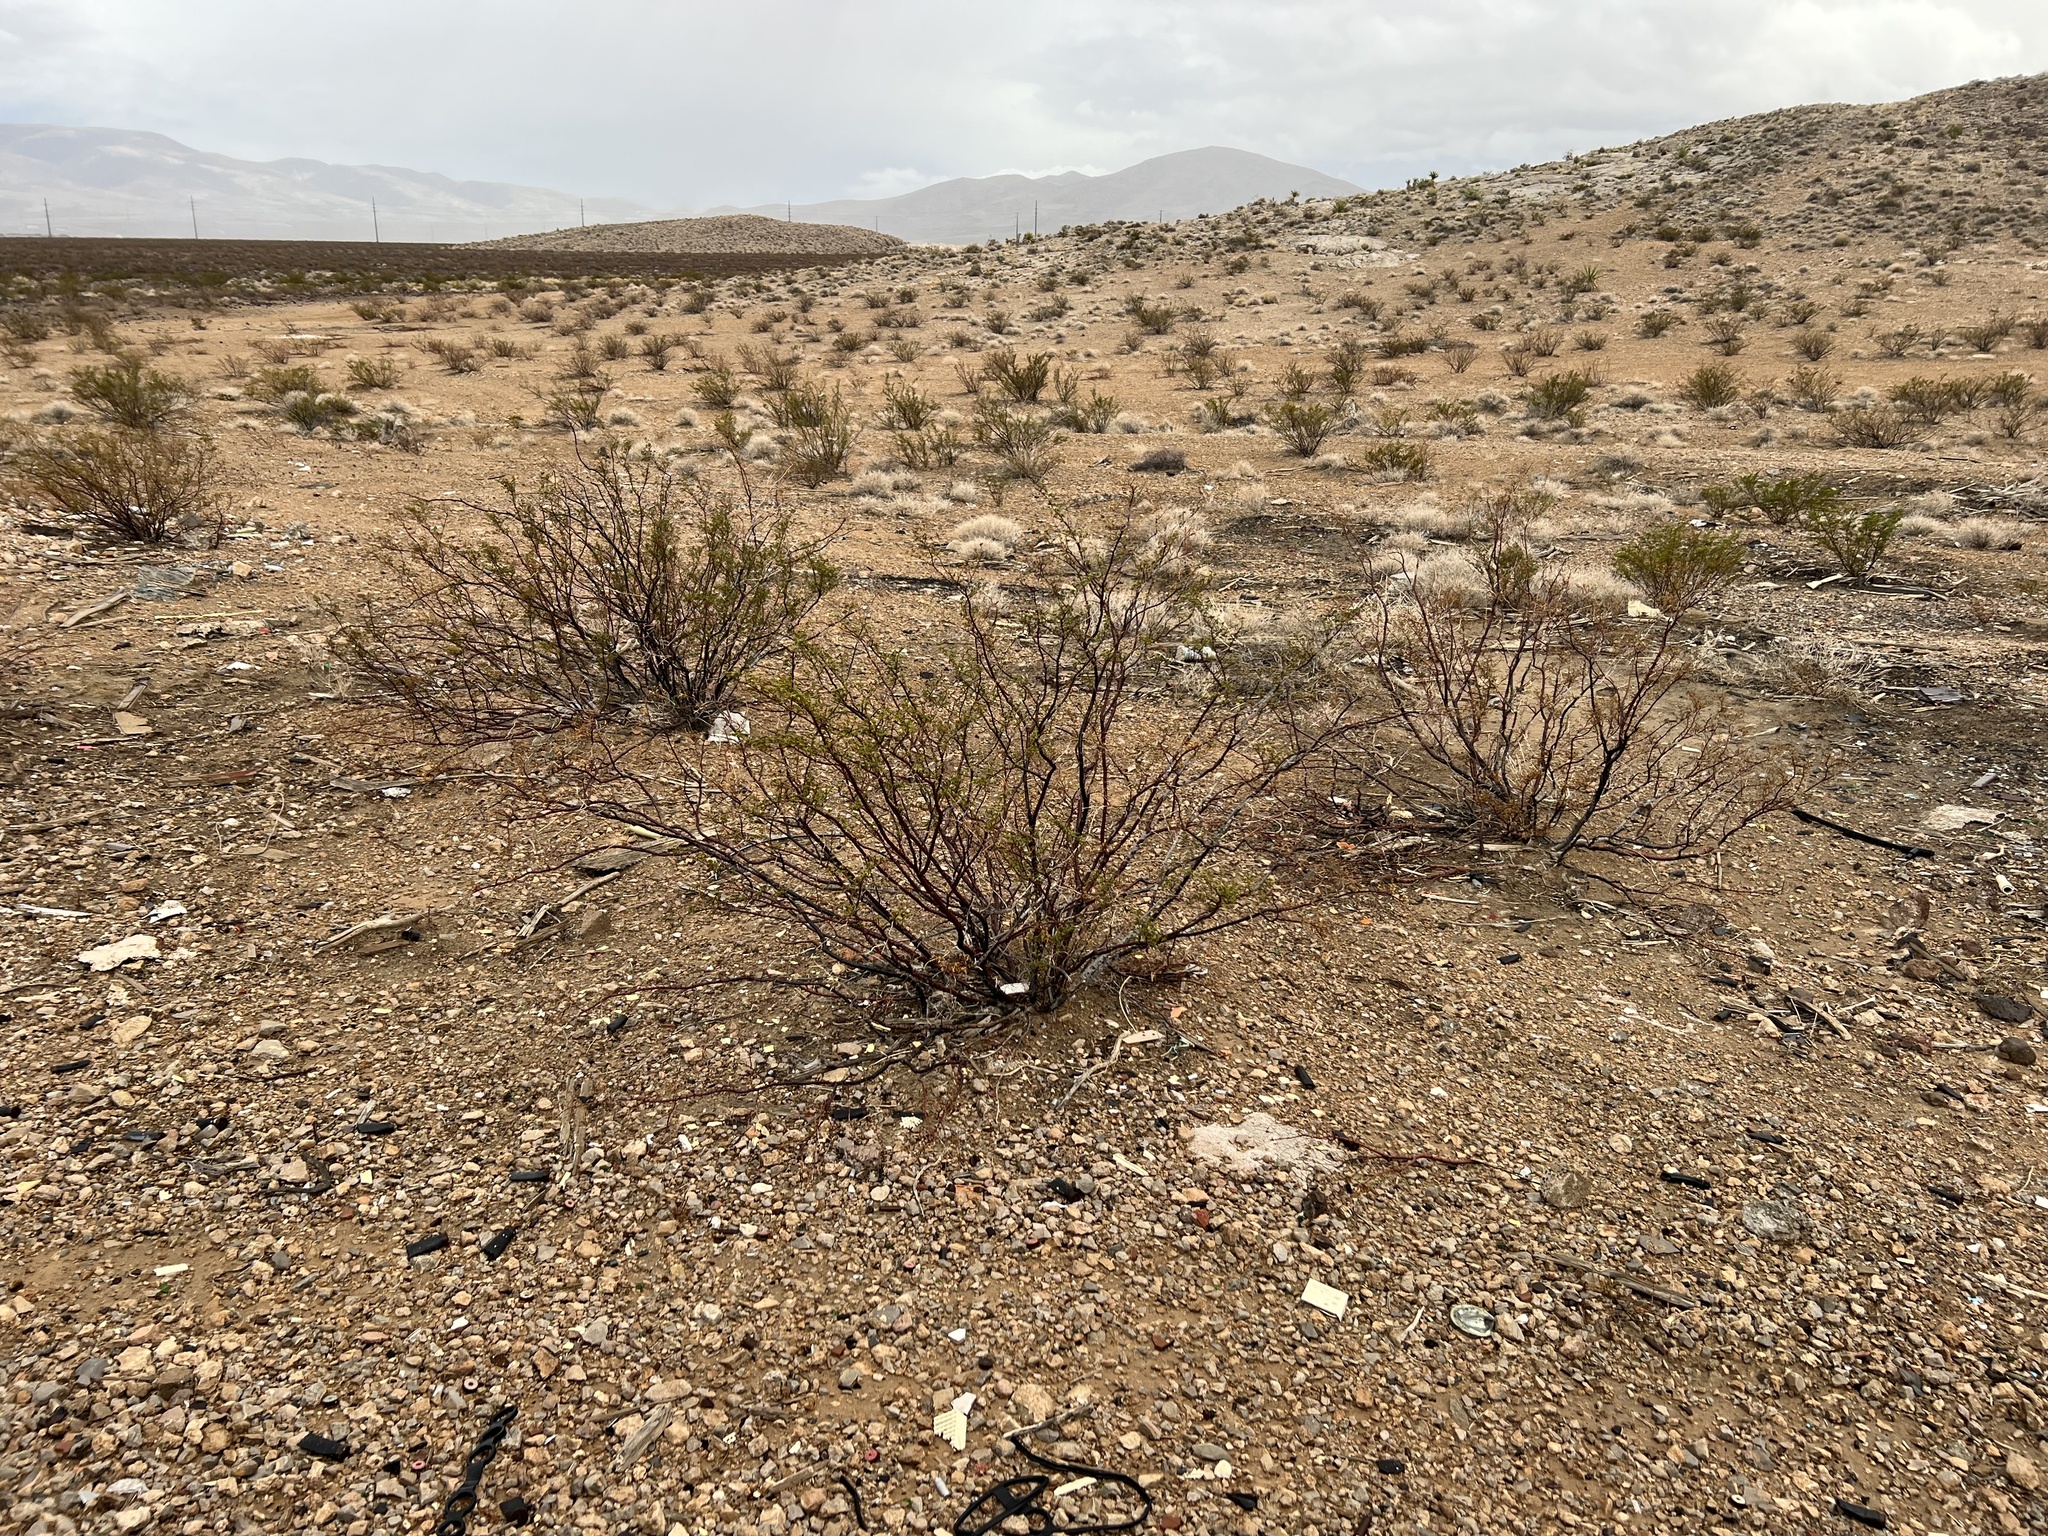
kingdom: Plantae
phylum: Tracheophyta
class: Magnoliopsida
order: Zygophyllales
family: Zygophyllaceae
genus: Larrea
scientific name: Larrea tridentata
